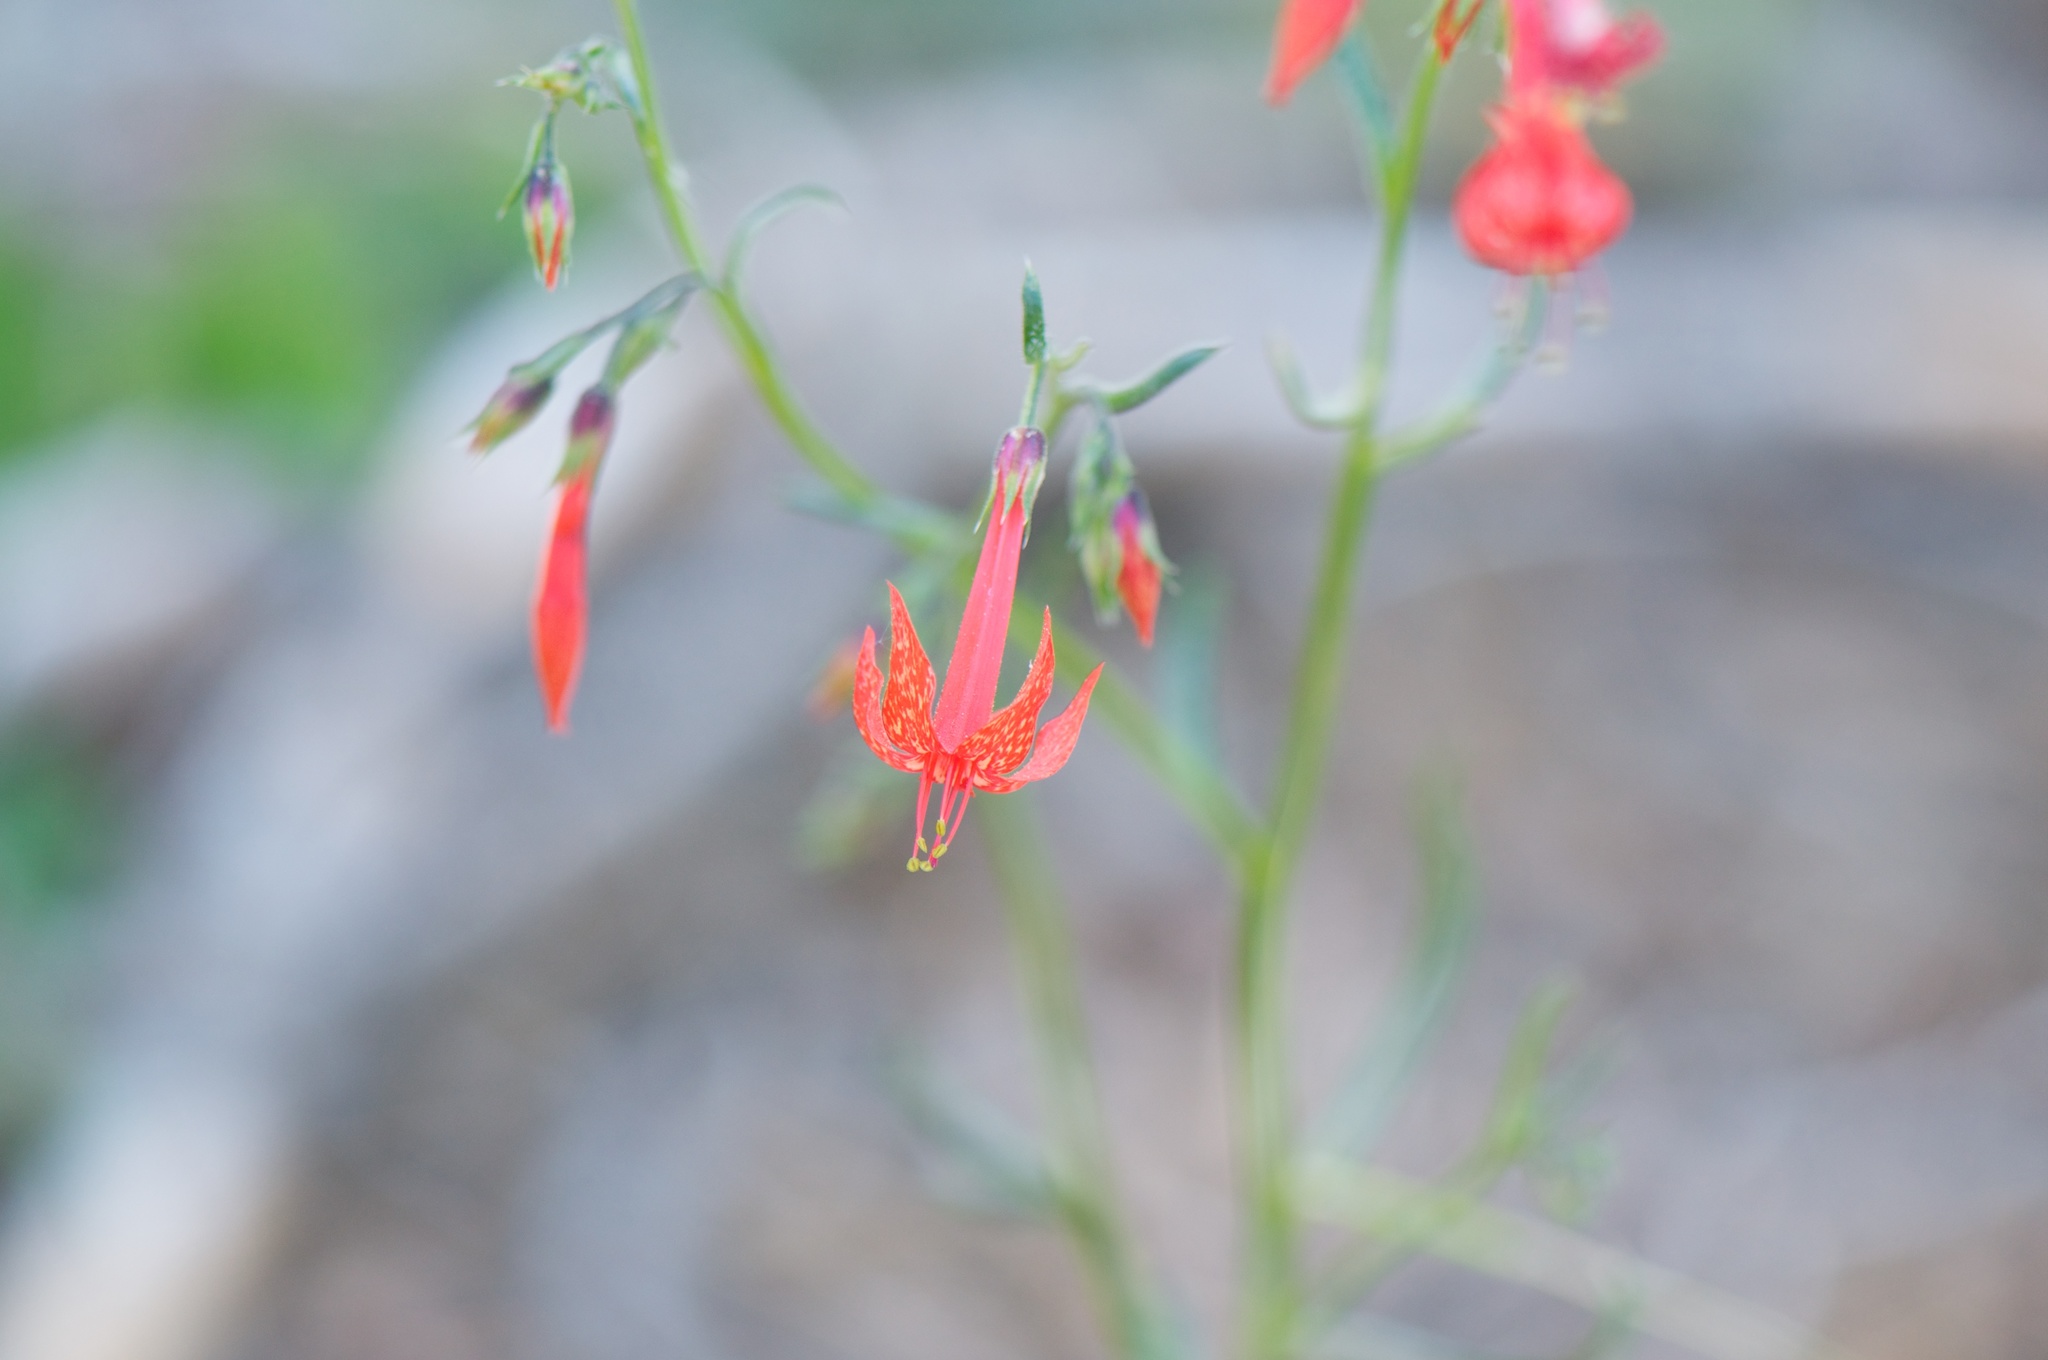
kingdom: Plantae
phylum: Tracheophyta
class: Magnoliopsida
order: Ericales
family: Polemoniaceae
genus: Ipomopsis
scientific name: Ipomopsis aggregata
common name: Scarlet gilia
